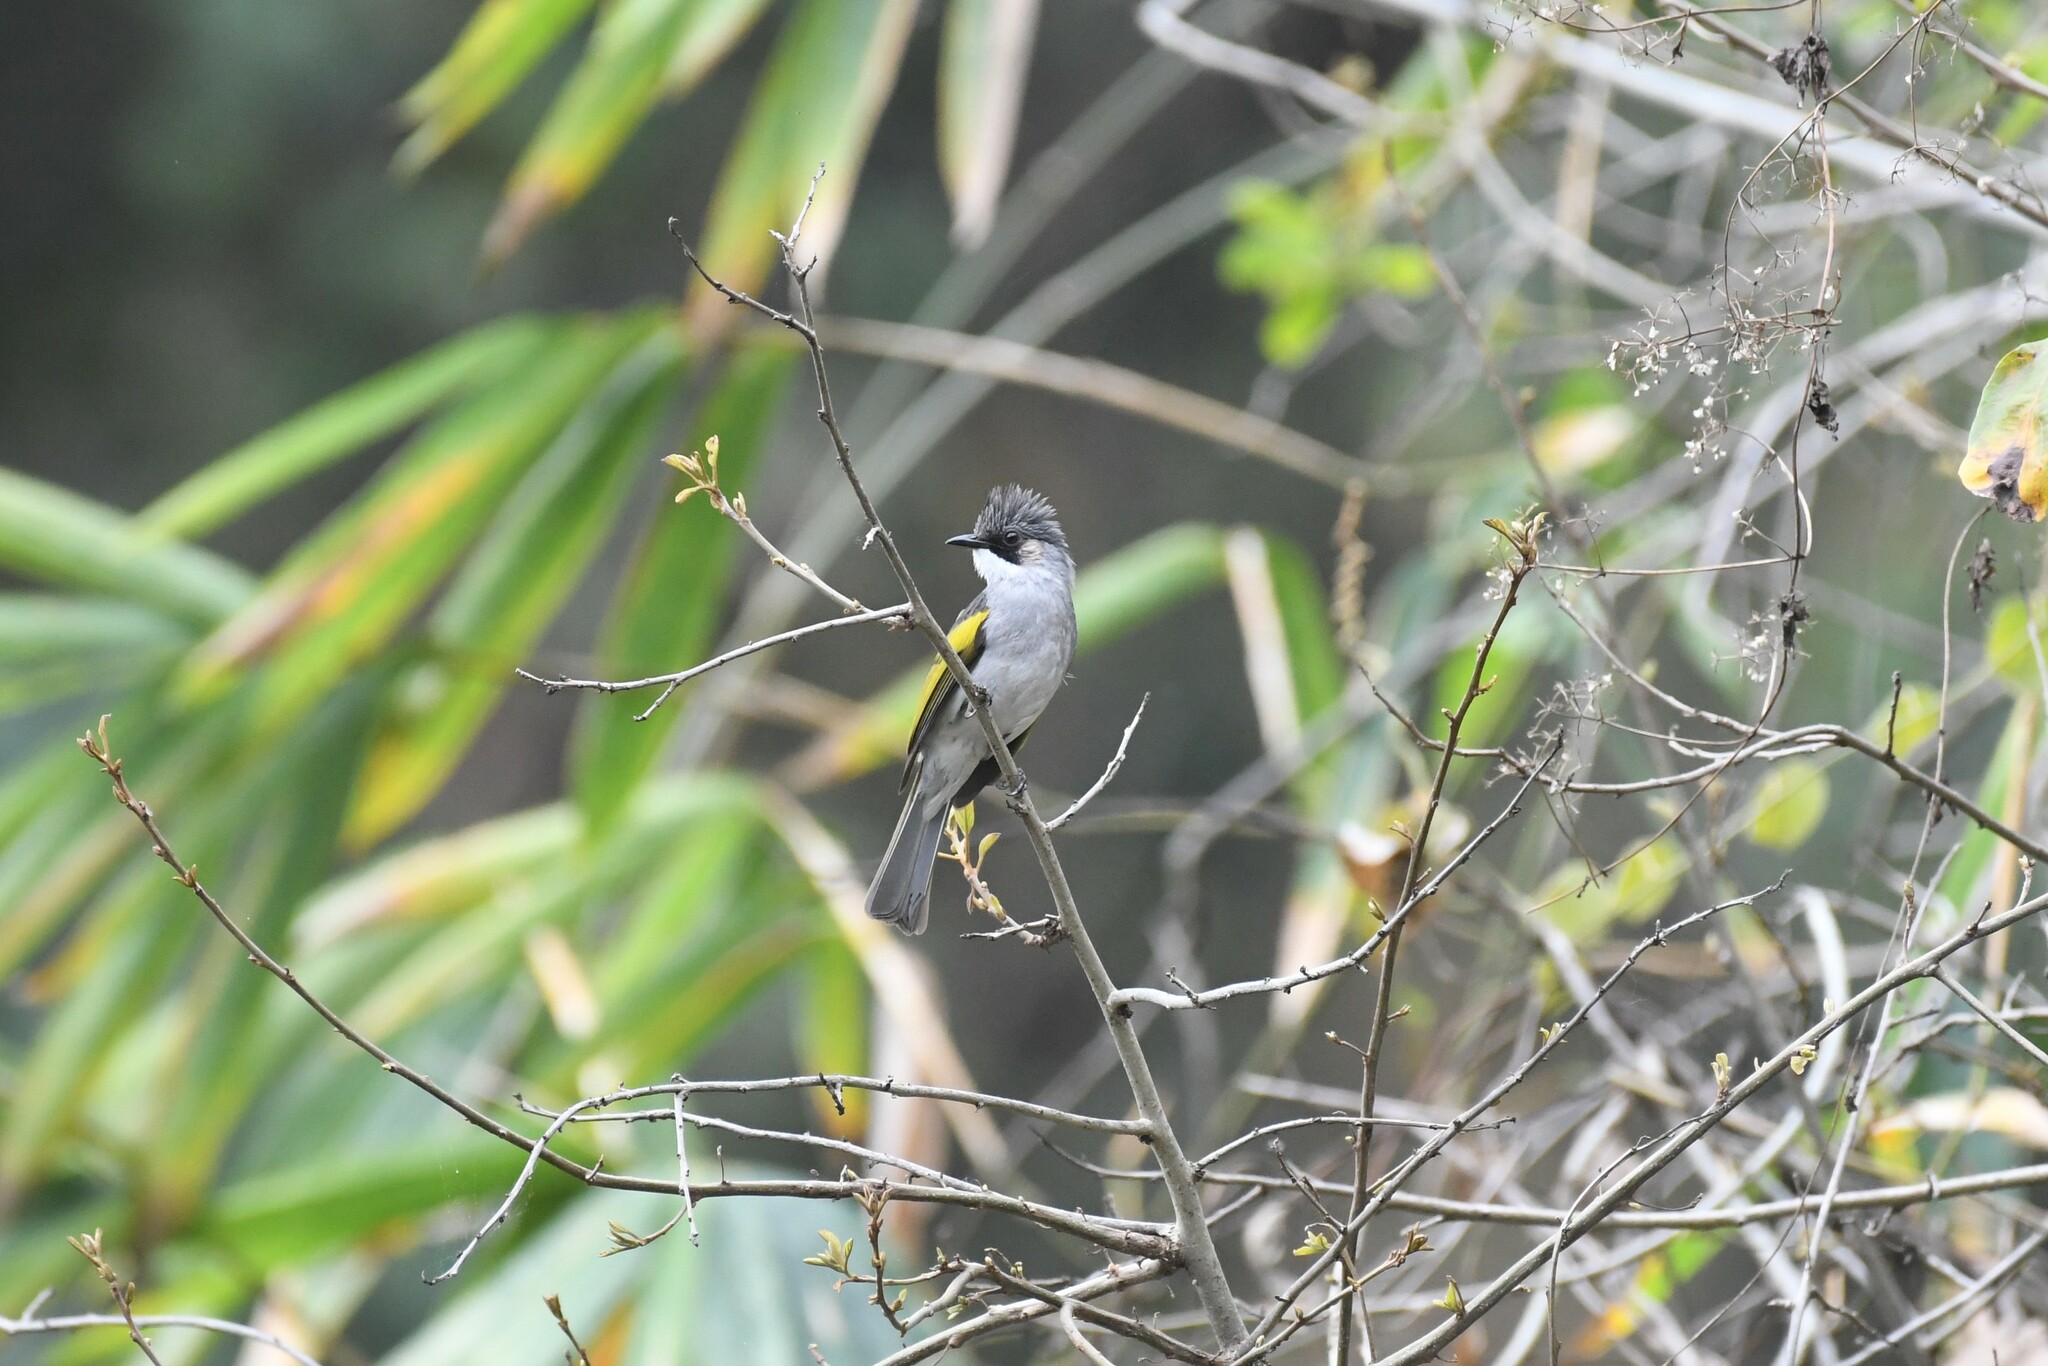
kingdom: Animalia
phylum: Chordata
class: Aves
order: Passeriformes
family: Pycnonotidae
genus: Hemixos
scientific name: Hemixos flavala
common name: Ashy bulbul
